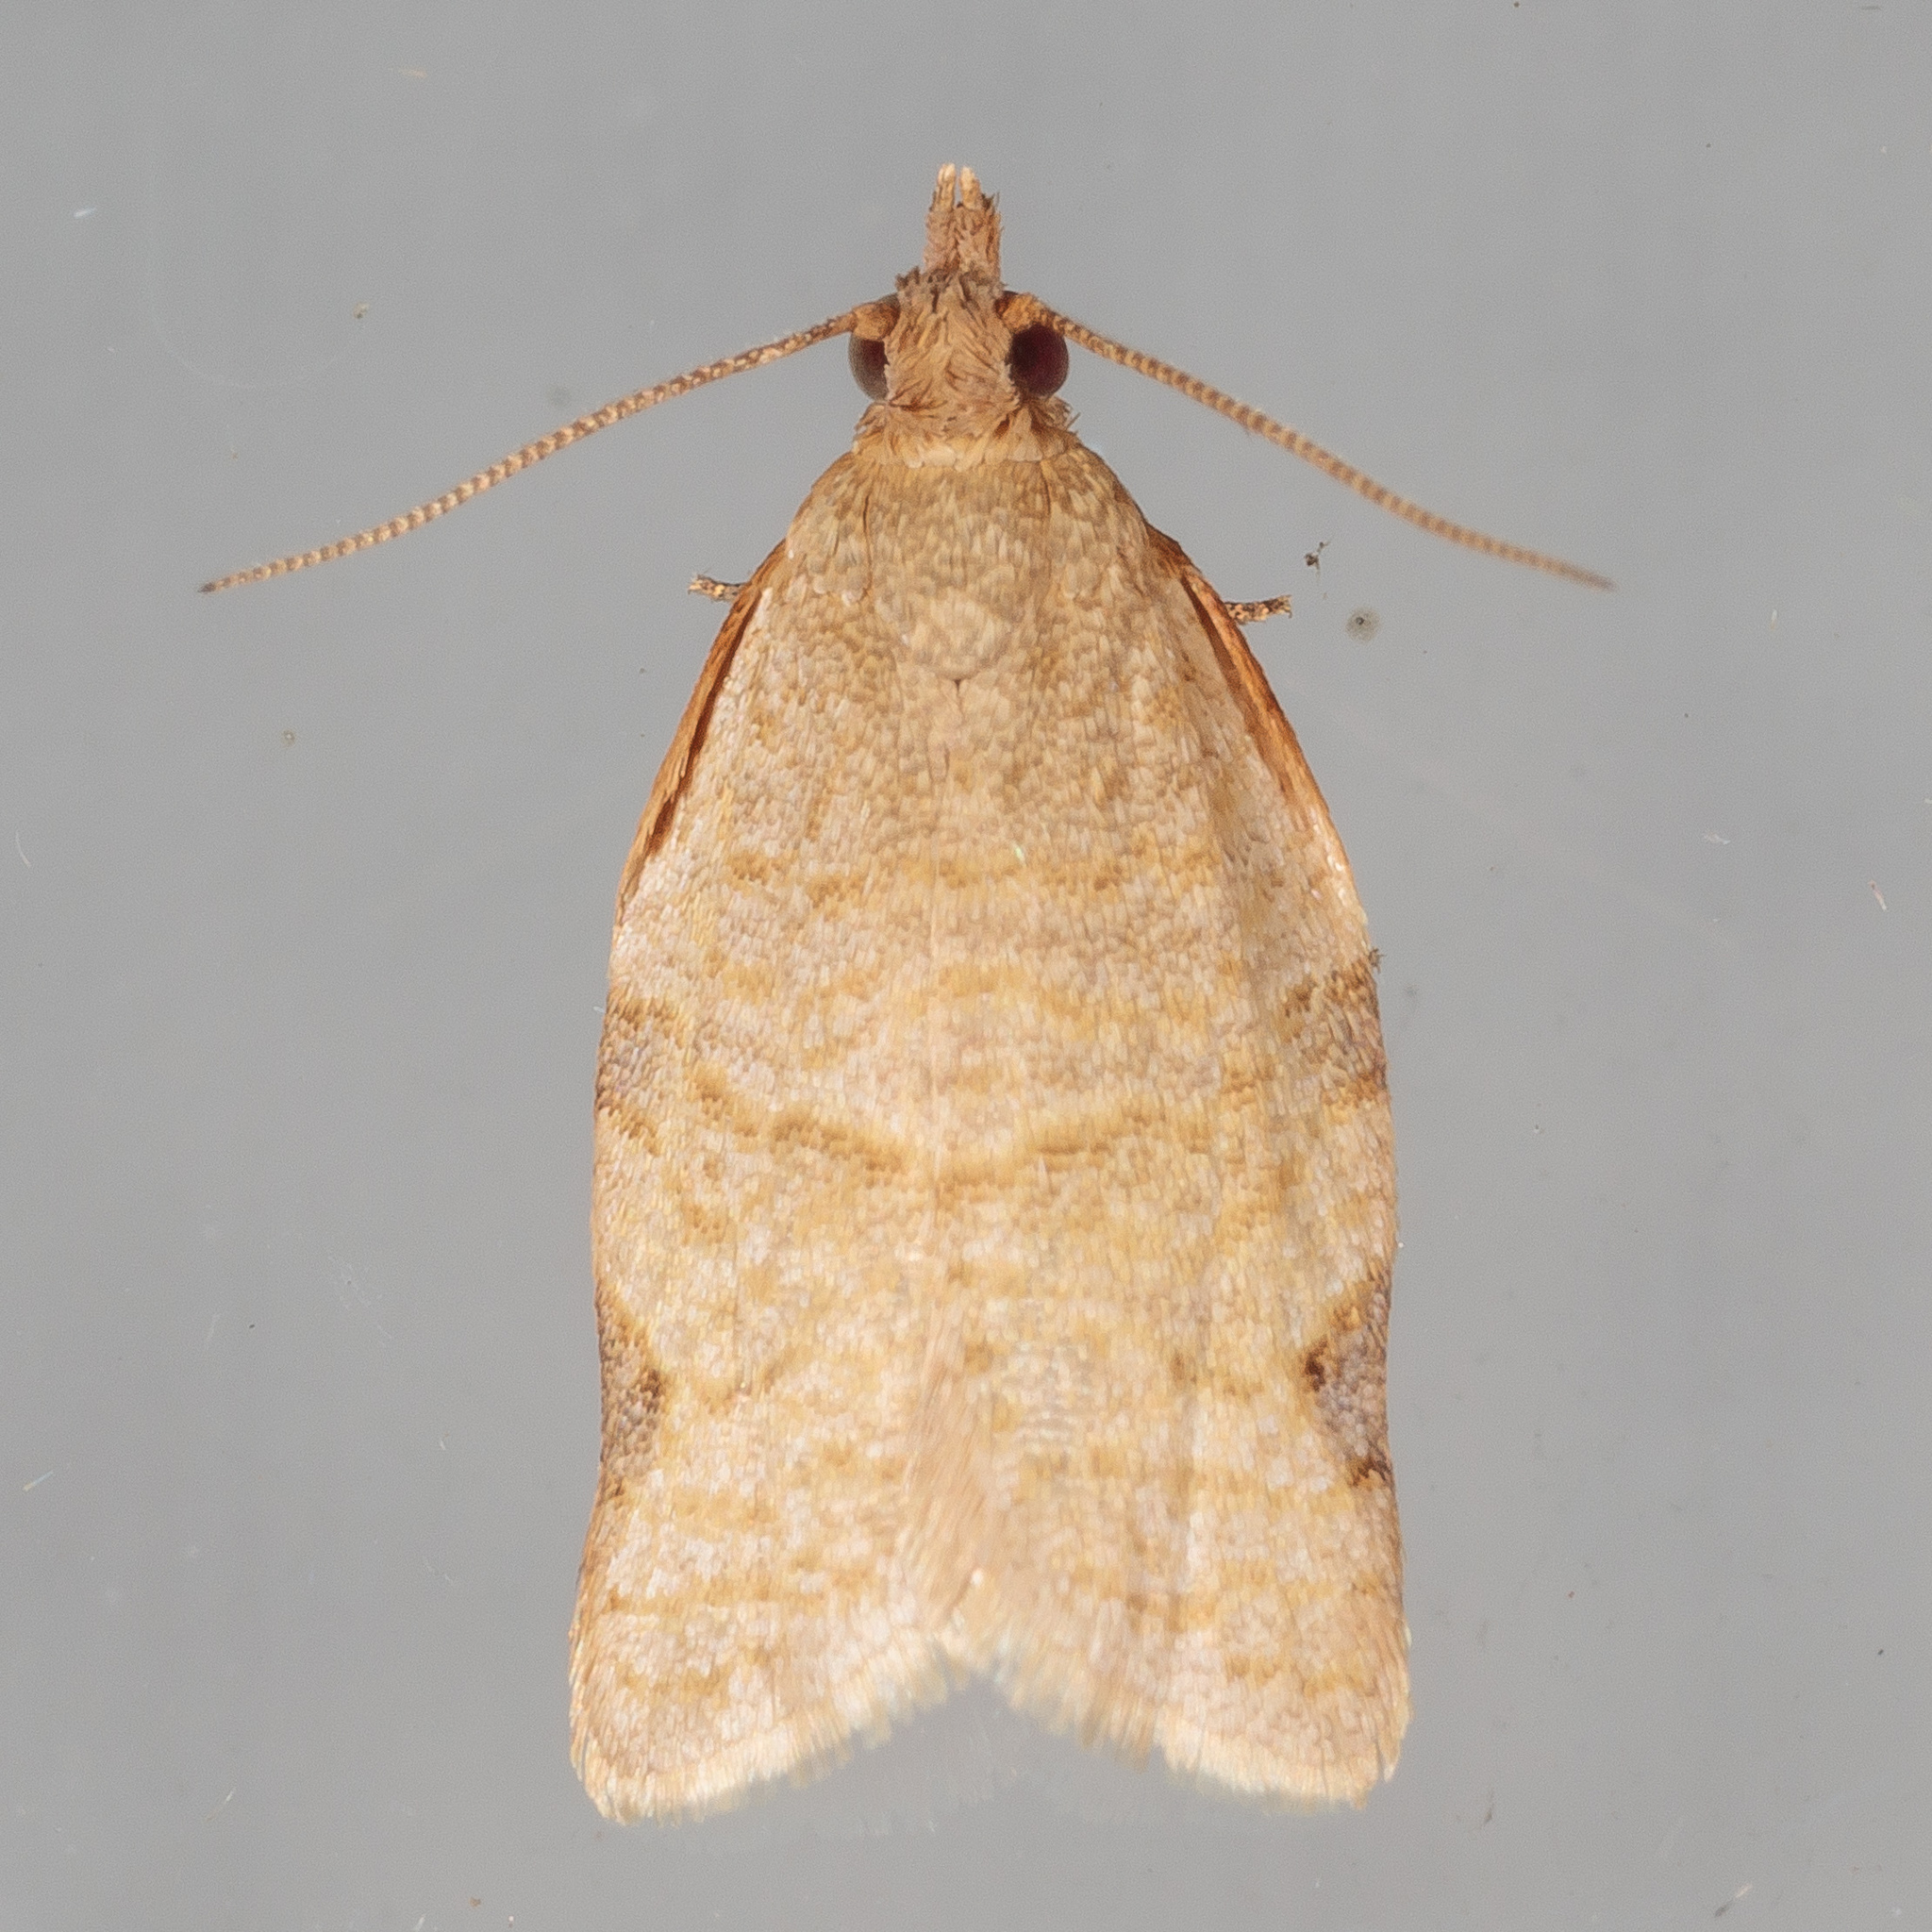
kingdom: Animalia
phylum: Arthropoda
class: Insecta
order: Lepidoptera
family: Tortricidae
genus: Clepsis
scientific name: Clepsis virescana
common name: Greenish apple moth
